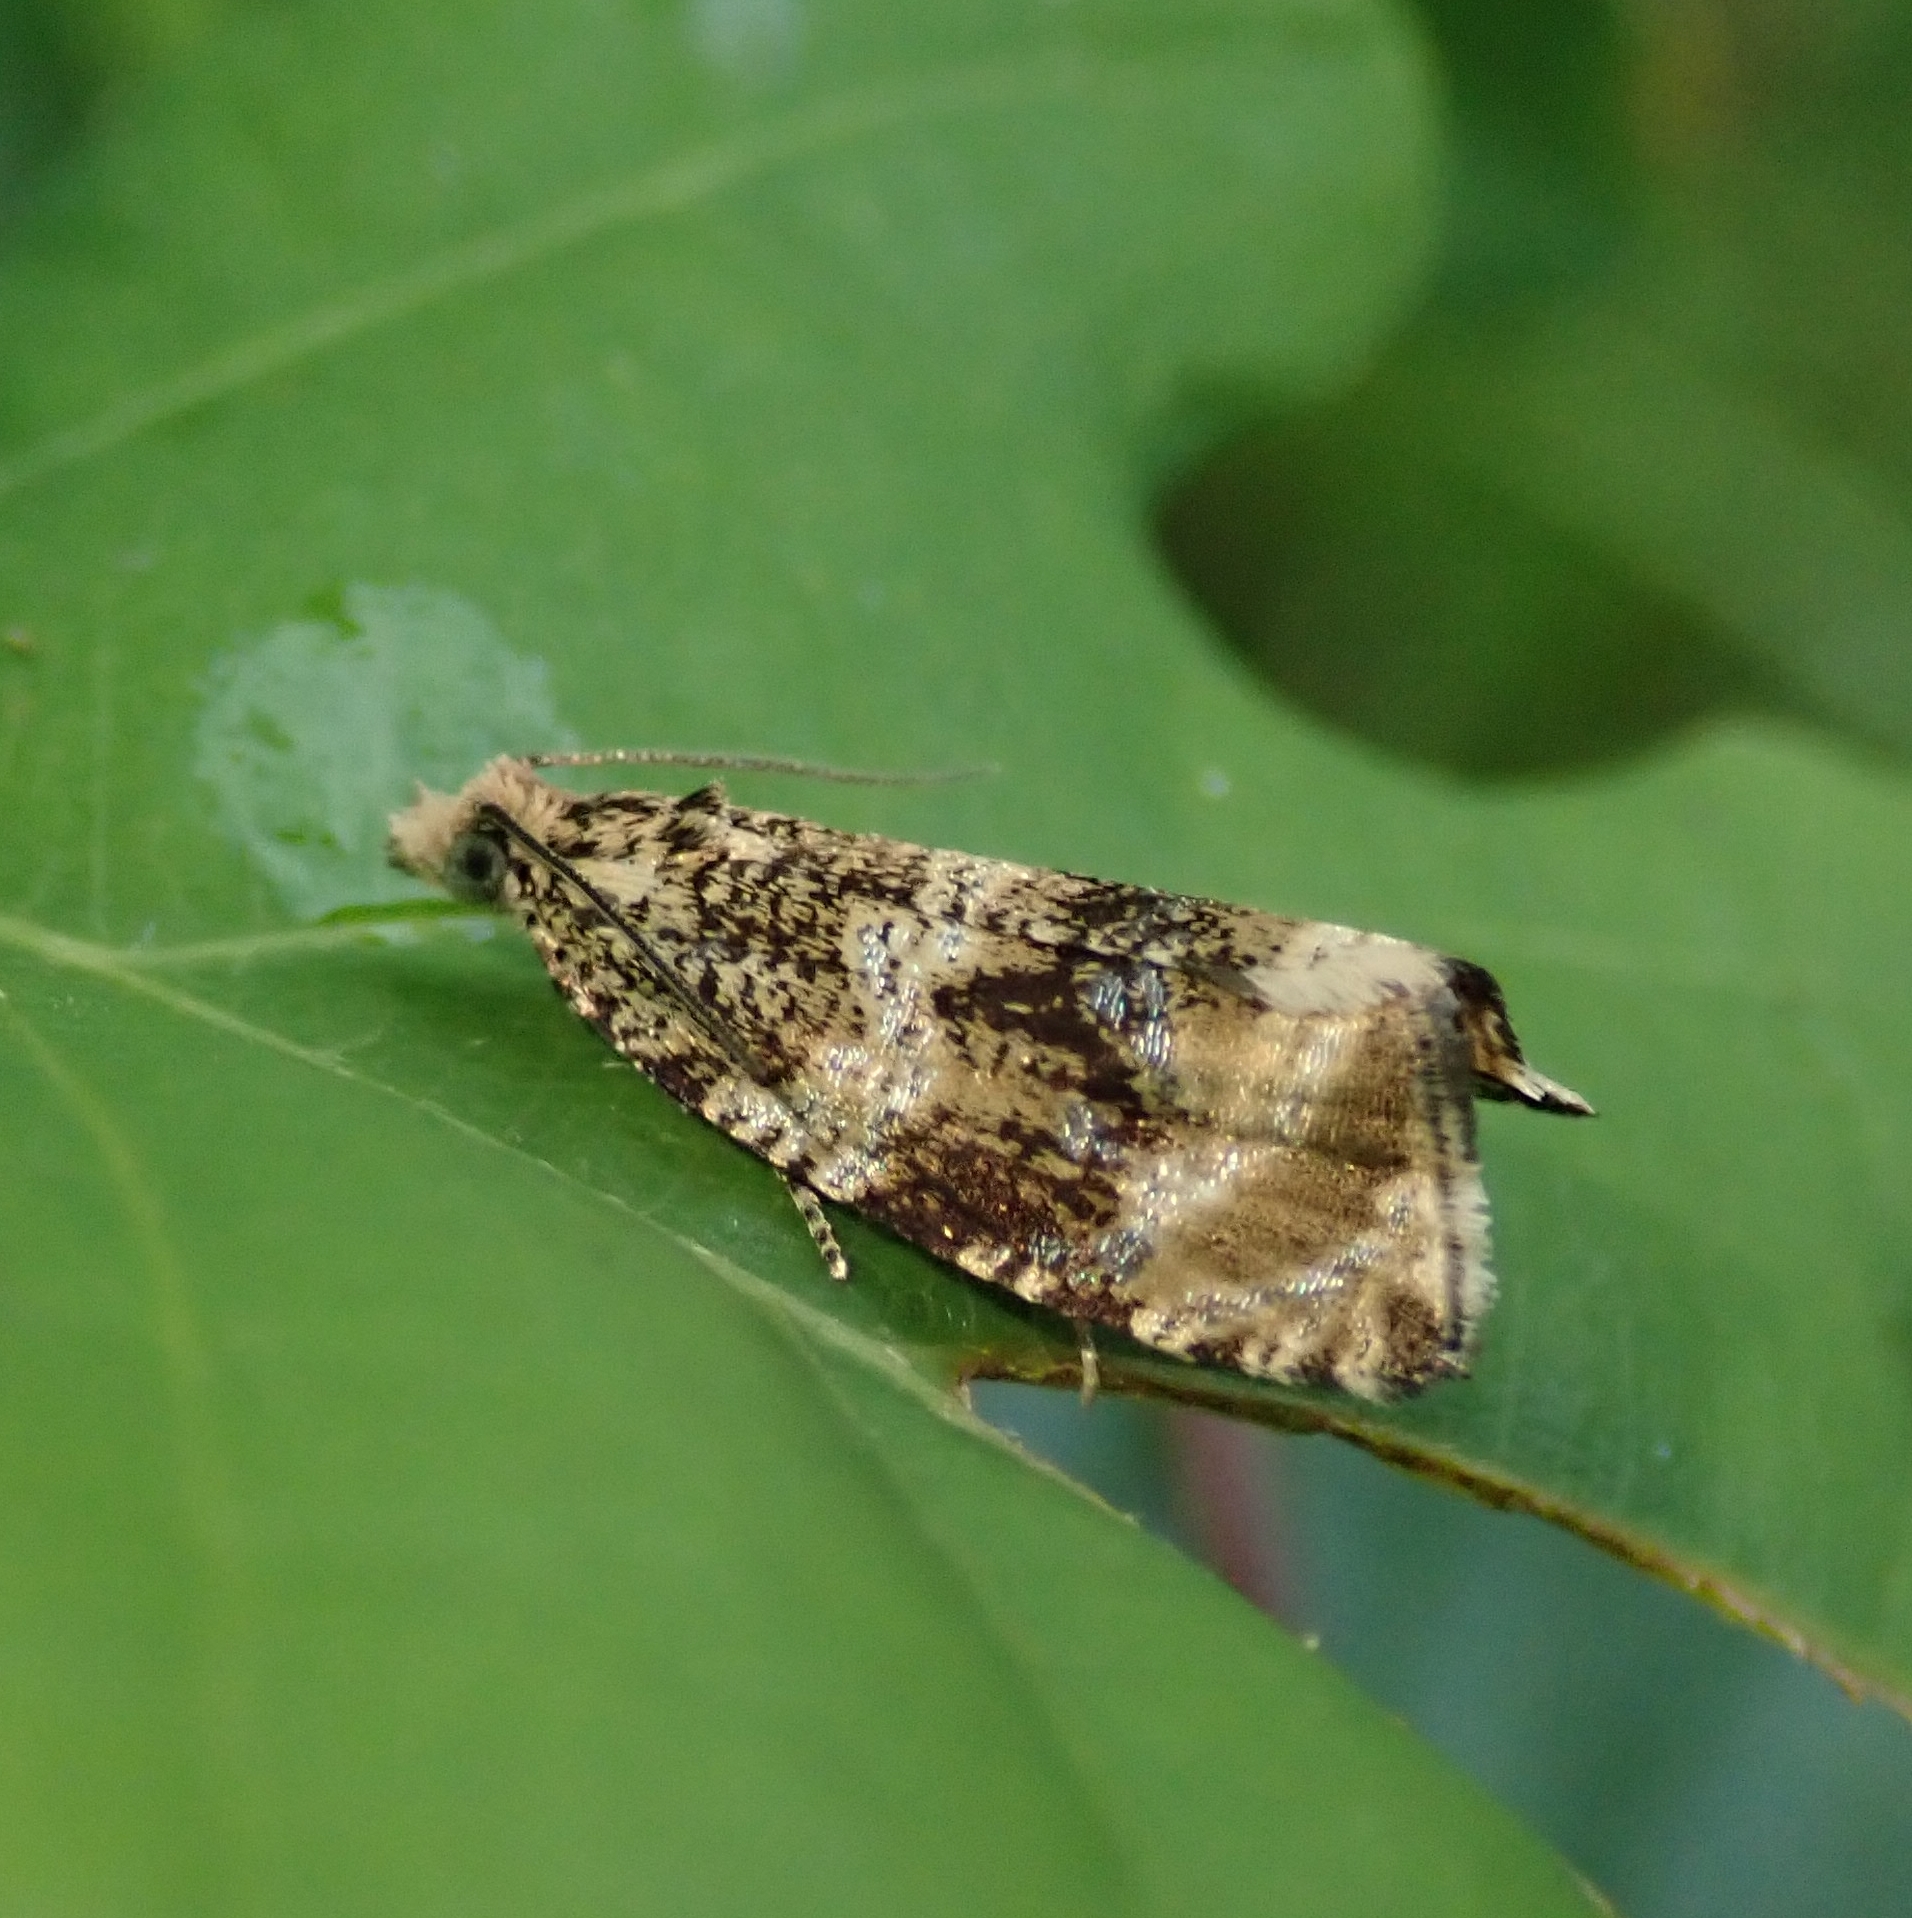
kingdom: Animalia
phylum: Arthropoda
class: Insecta
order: Lepidoptera
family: Tortricidae
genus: Syricoris
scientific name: Syricoris lacunana
